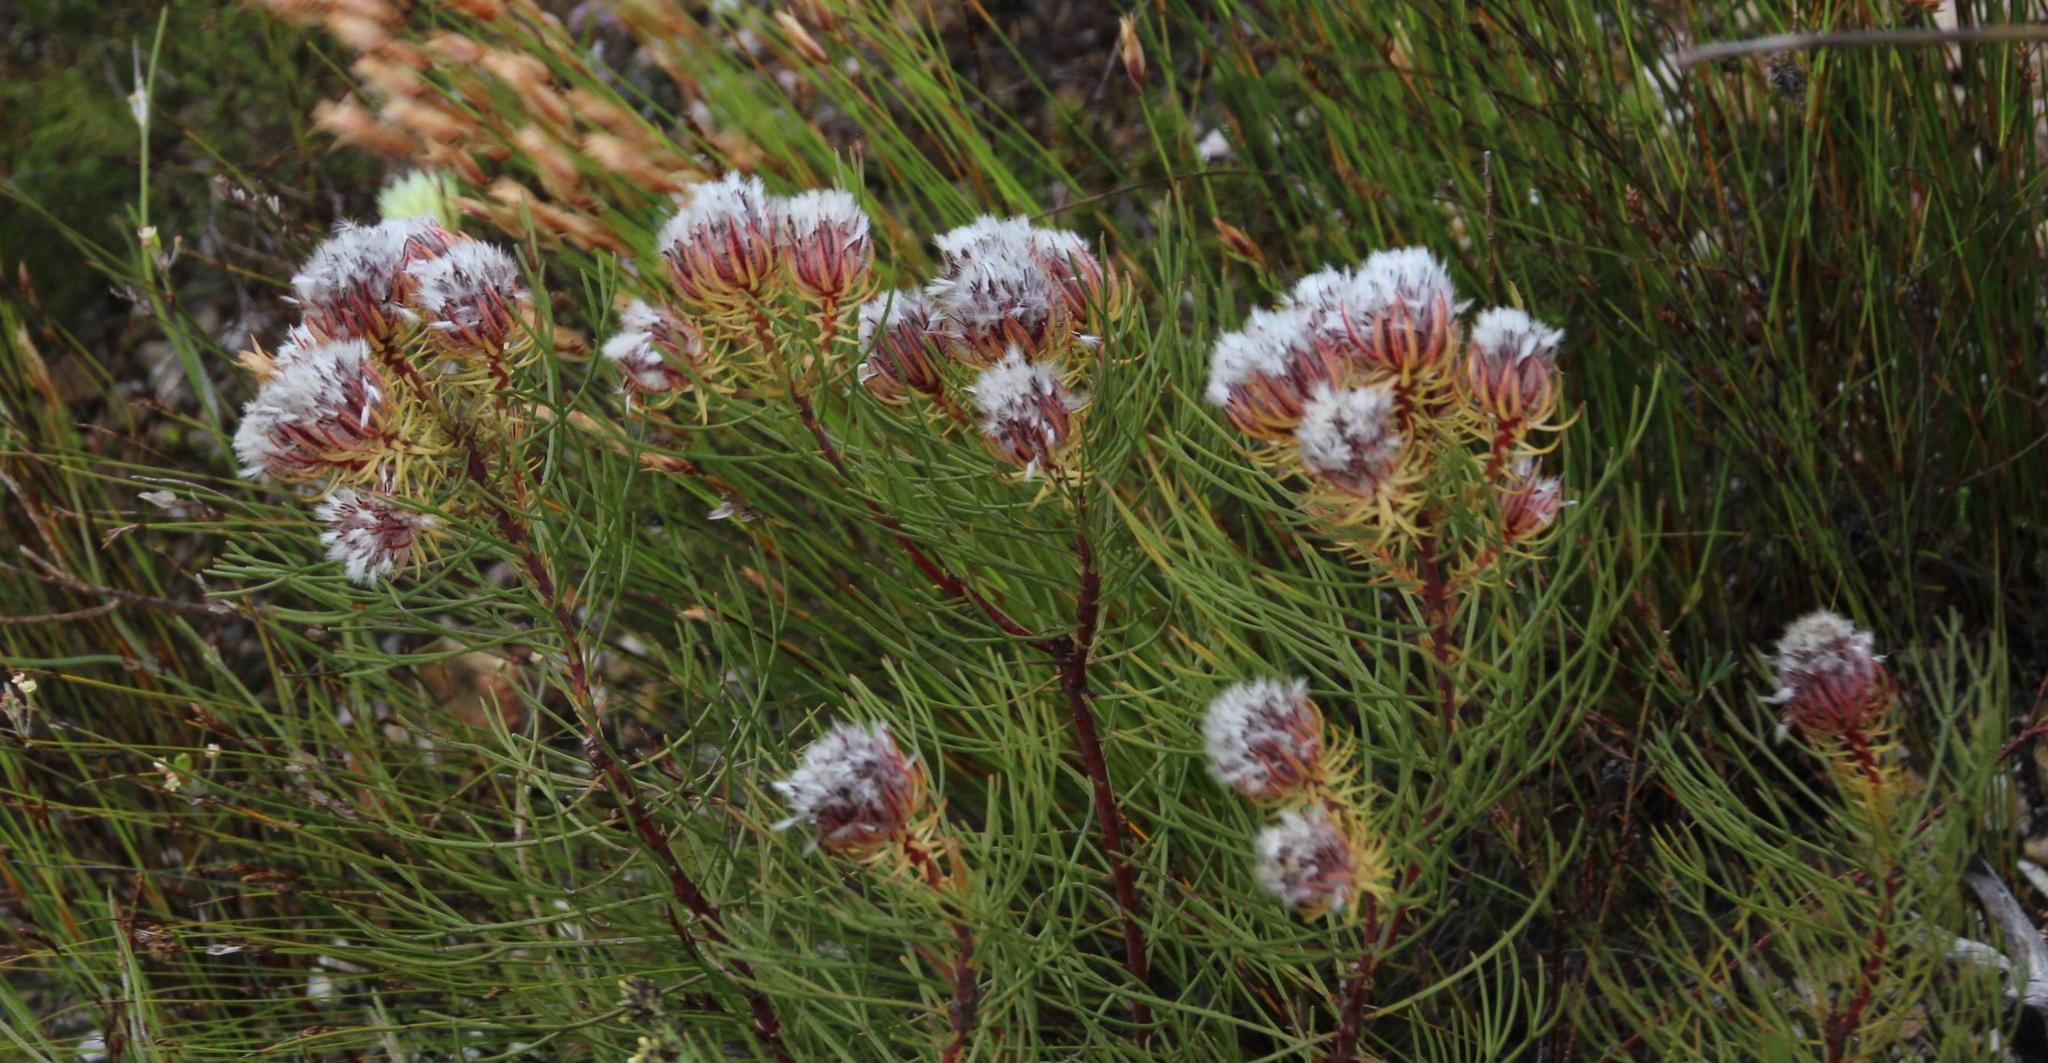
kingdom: Plantae
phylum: Tracheophyta
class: Magnoliopsida
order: Proteales
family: Proteaceae
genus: Serruria
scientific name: Serruria phylicoides
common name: Bearded spiderhead
